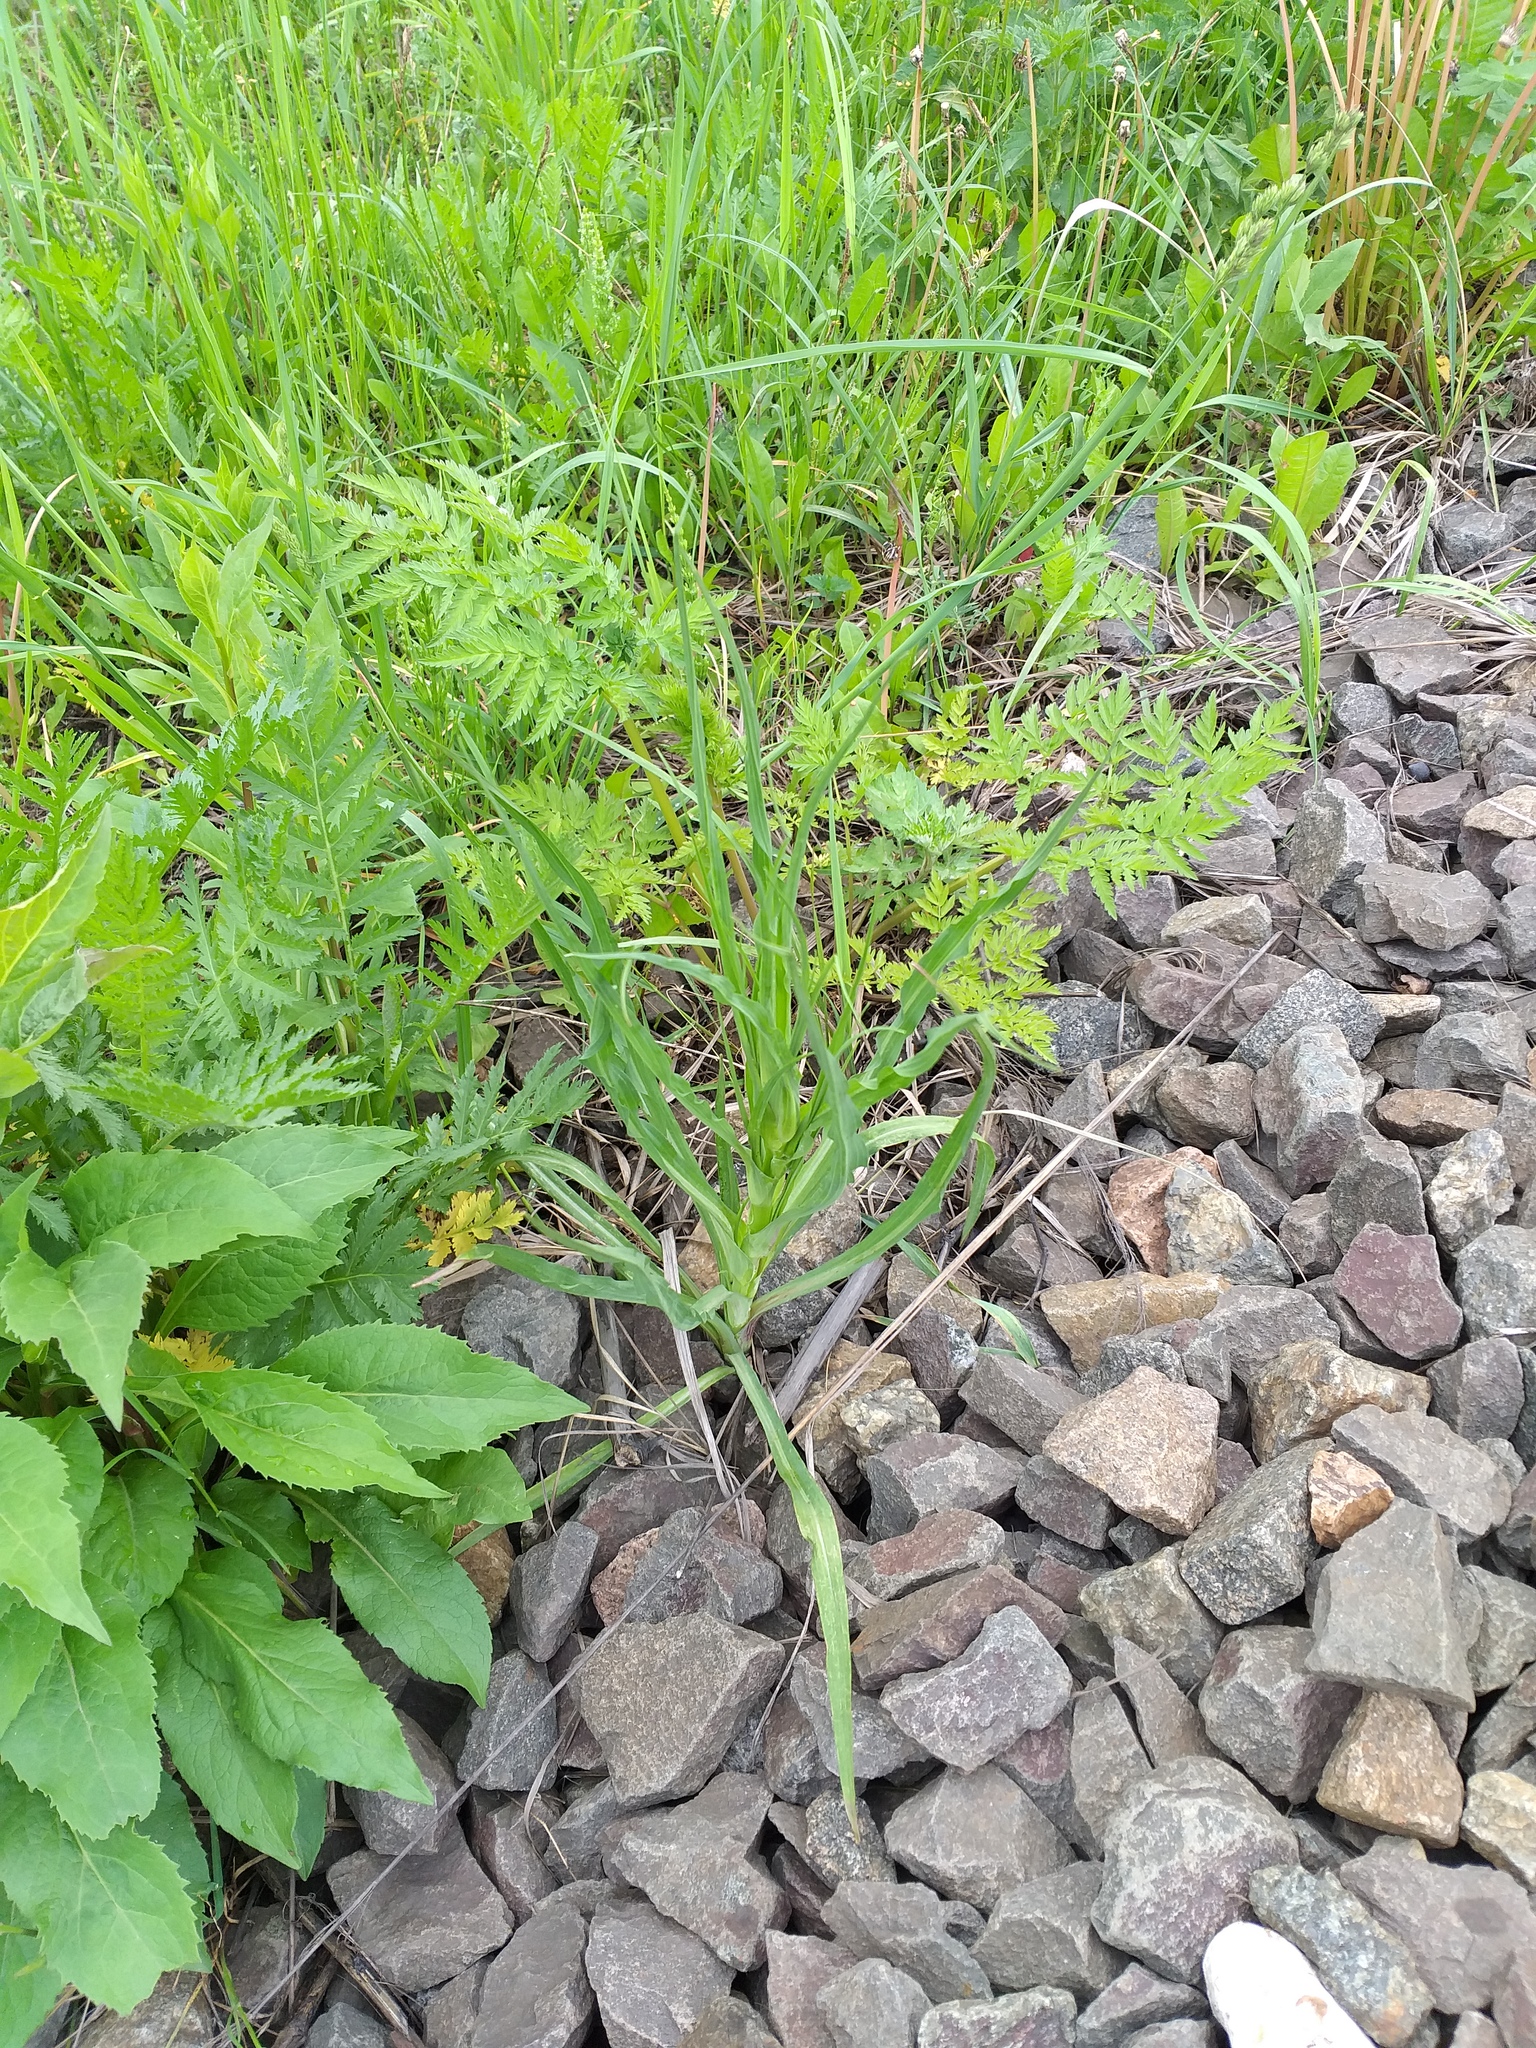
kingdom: Plantae
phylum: Tracheophyta
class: Magnoliopsida
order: Asterales
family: Asteraceae
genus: Tragopogon
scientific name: Tragopogon dubius
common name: Yellow salsify
